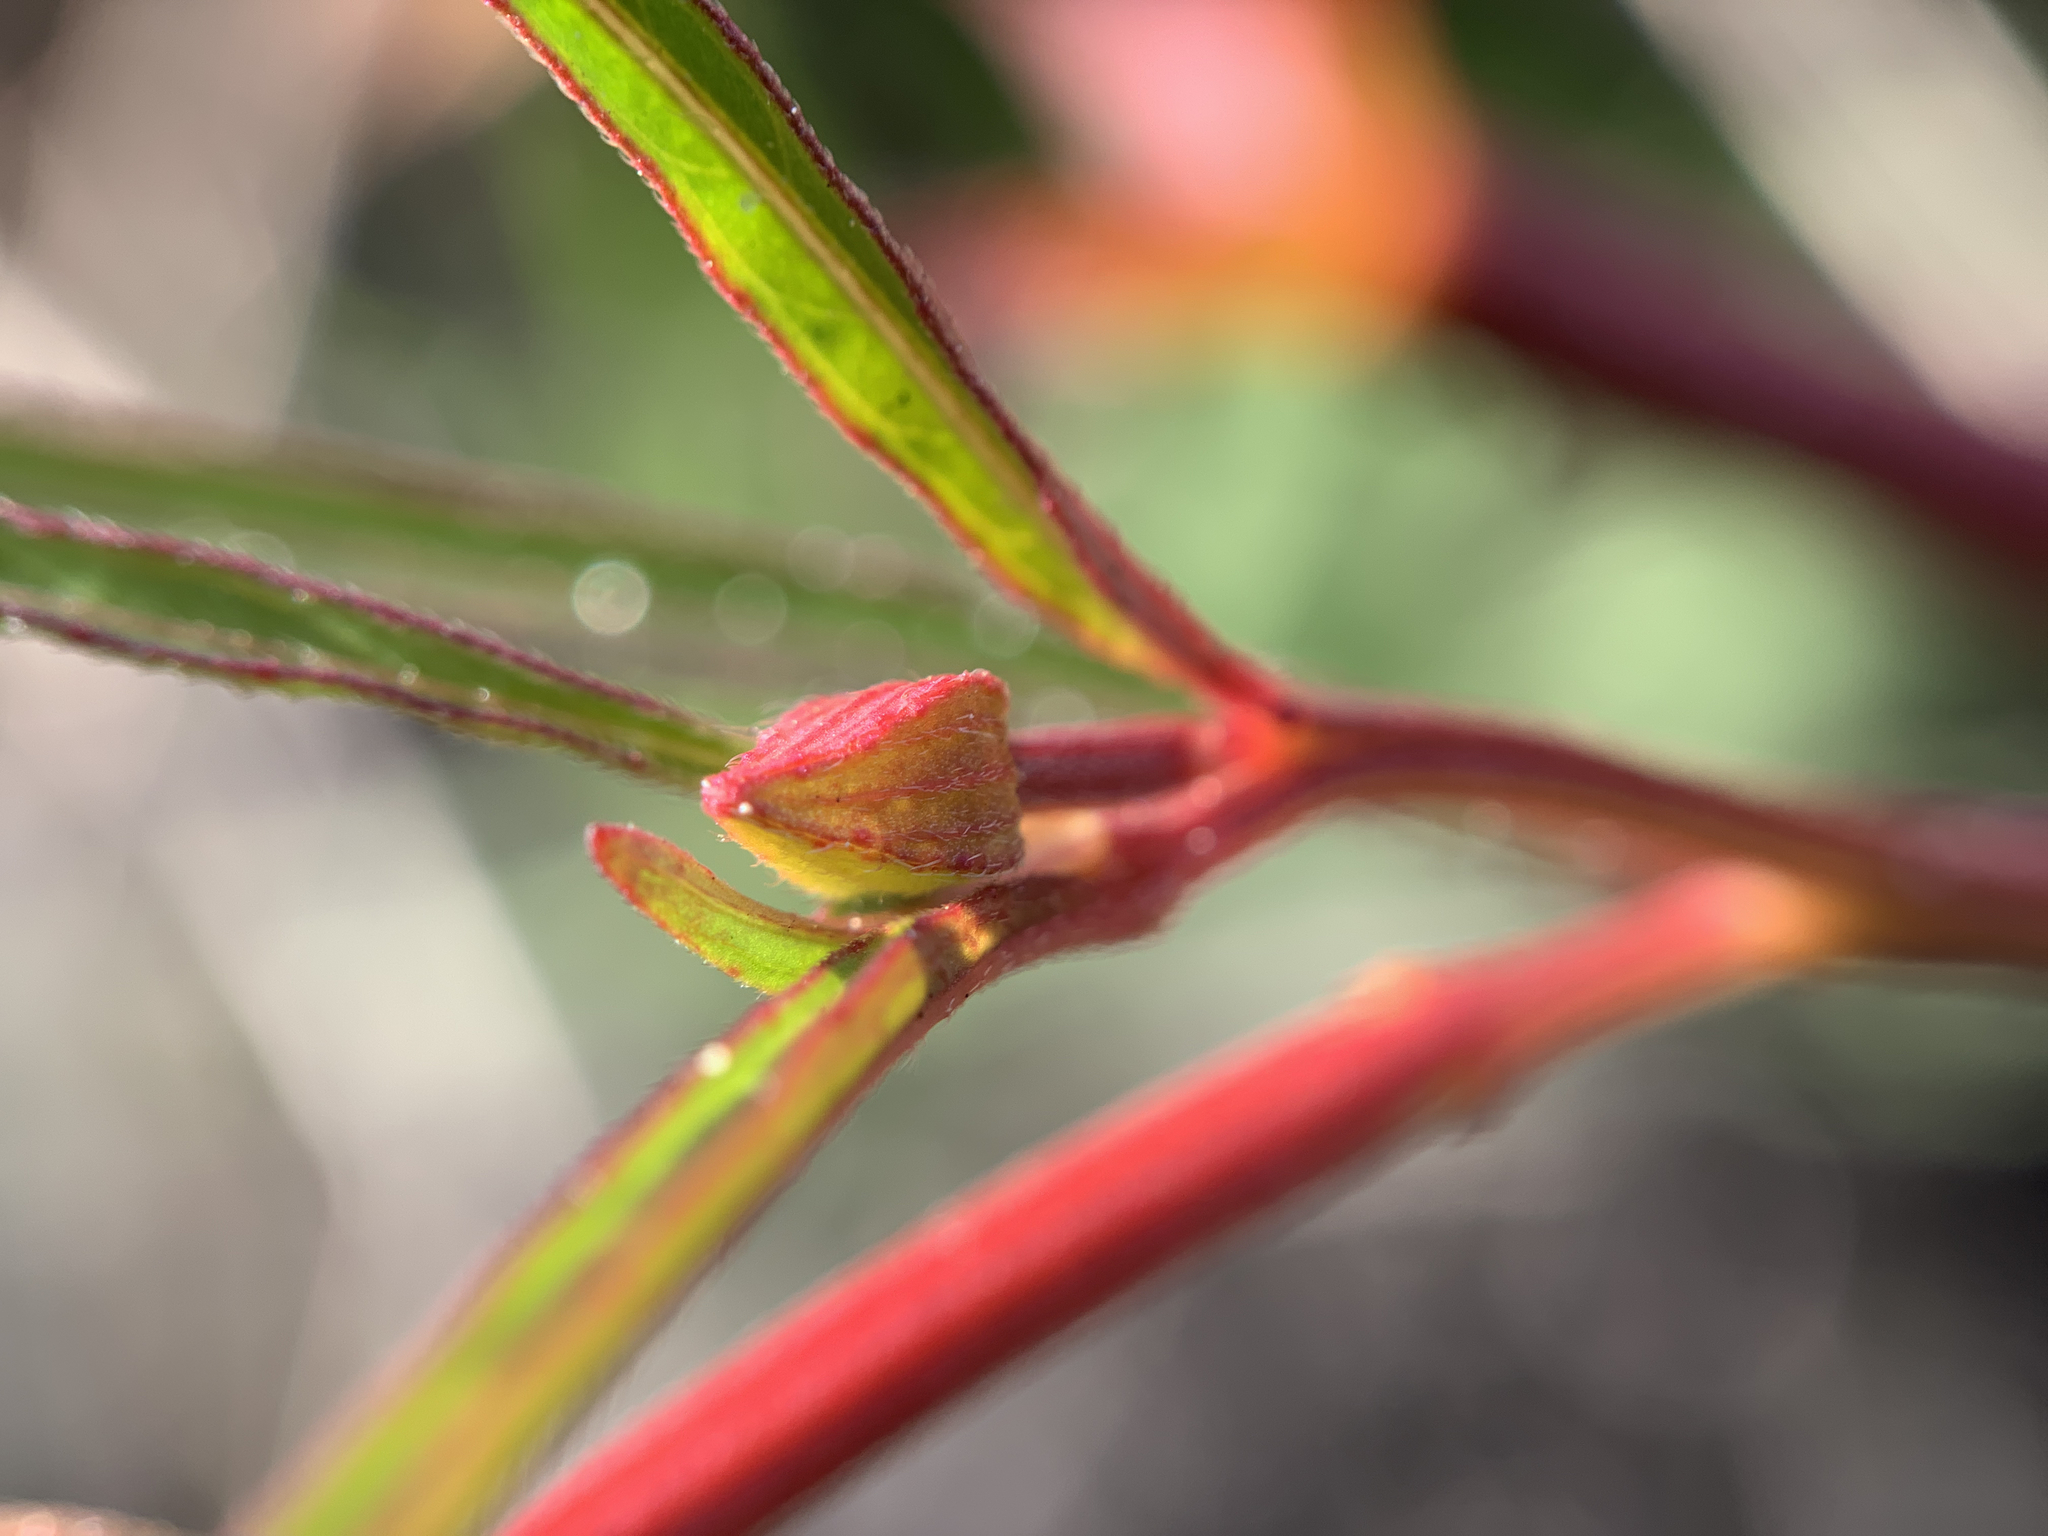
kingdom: Plantae
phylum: Tracheophyta
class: Magnoliopsida
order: Myrtales
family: Onagraceae
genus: Ludwigia
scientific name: Ludwigia octovalvis
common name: Water-primrose
